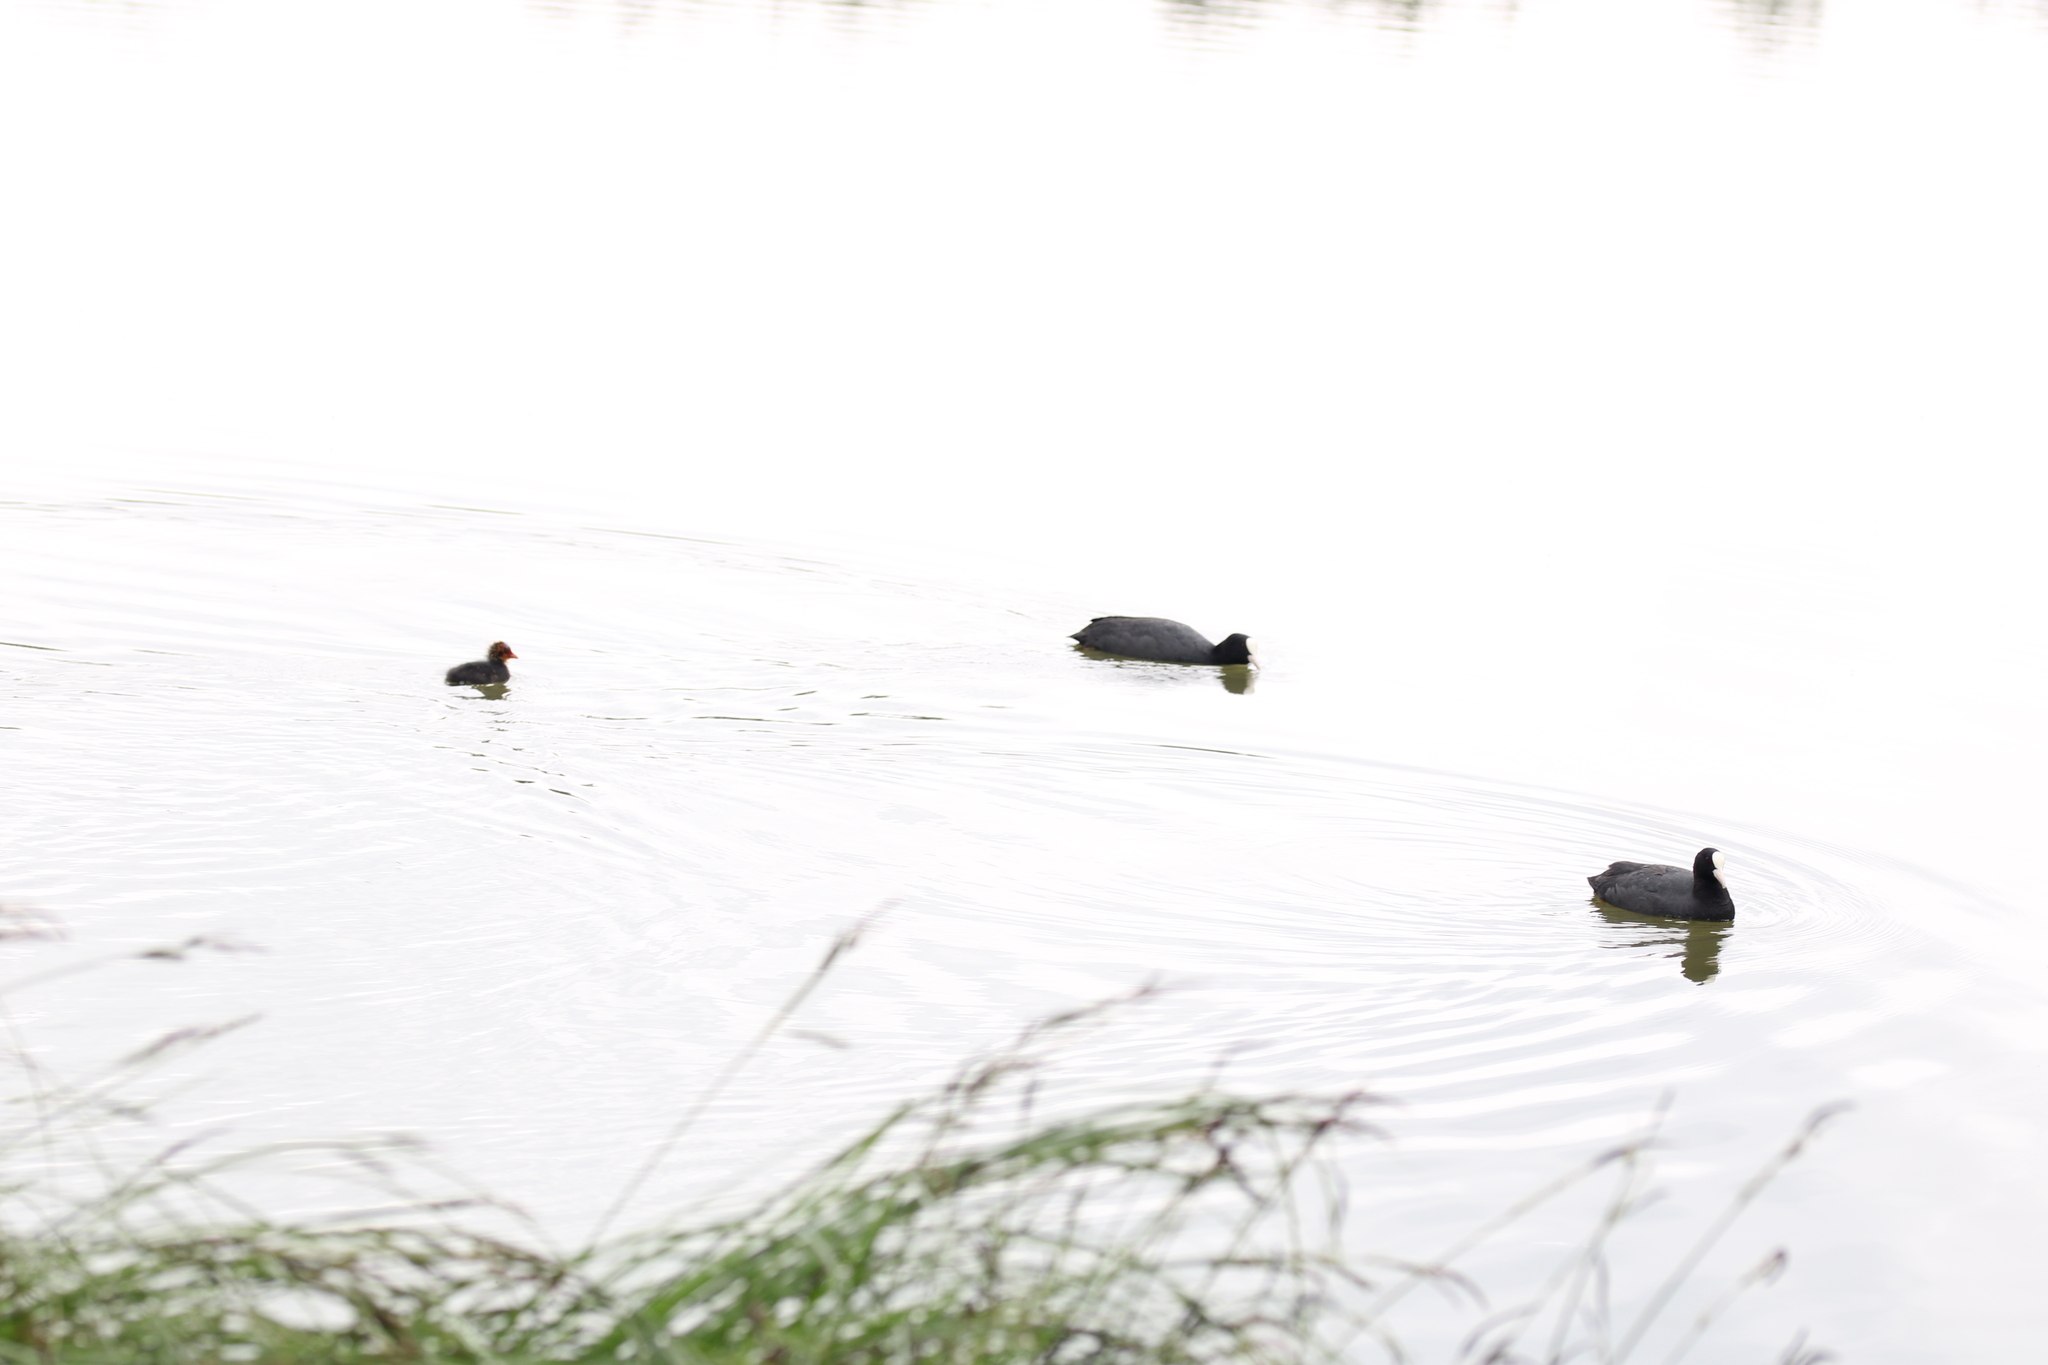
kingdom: Animalia
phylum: Chordata
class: Aves
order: Gruiformes
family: Rallidae
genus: Fulica
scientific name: Fulica atra
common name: Eurasian coot
